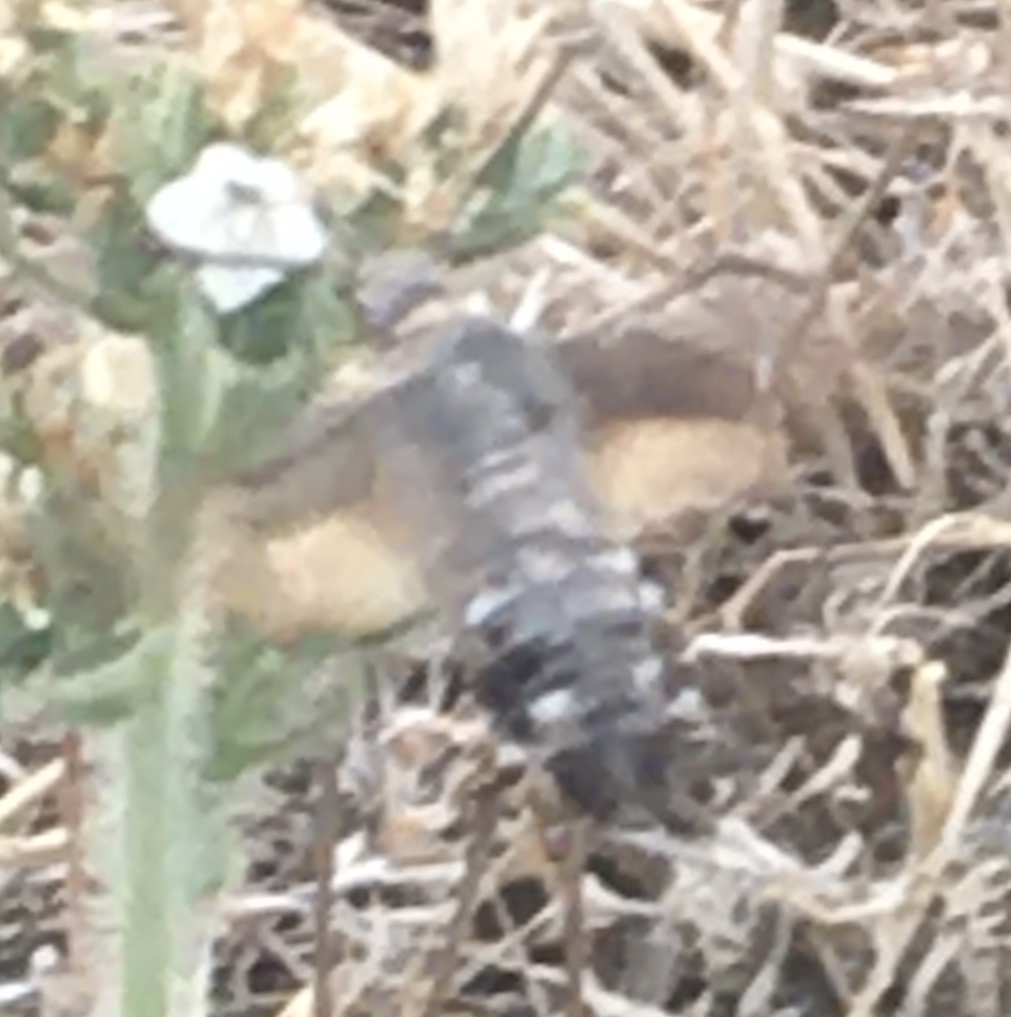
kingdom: Animalia
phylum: Arthropoda
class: Insecta
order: Lepidoptera
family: Sphingidae
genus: Macroglossum
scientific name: Macroglossum stellatarum
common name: Humming-bird hawk-moth
